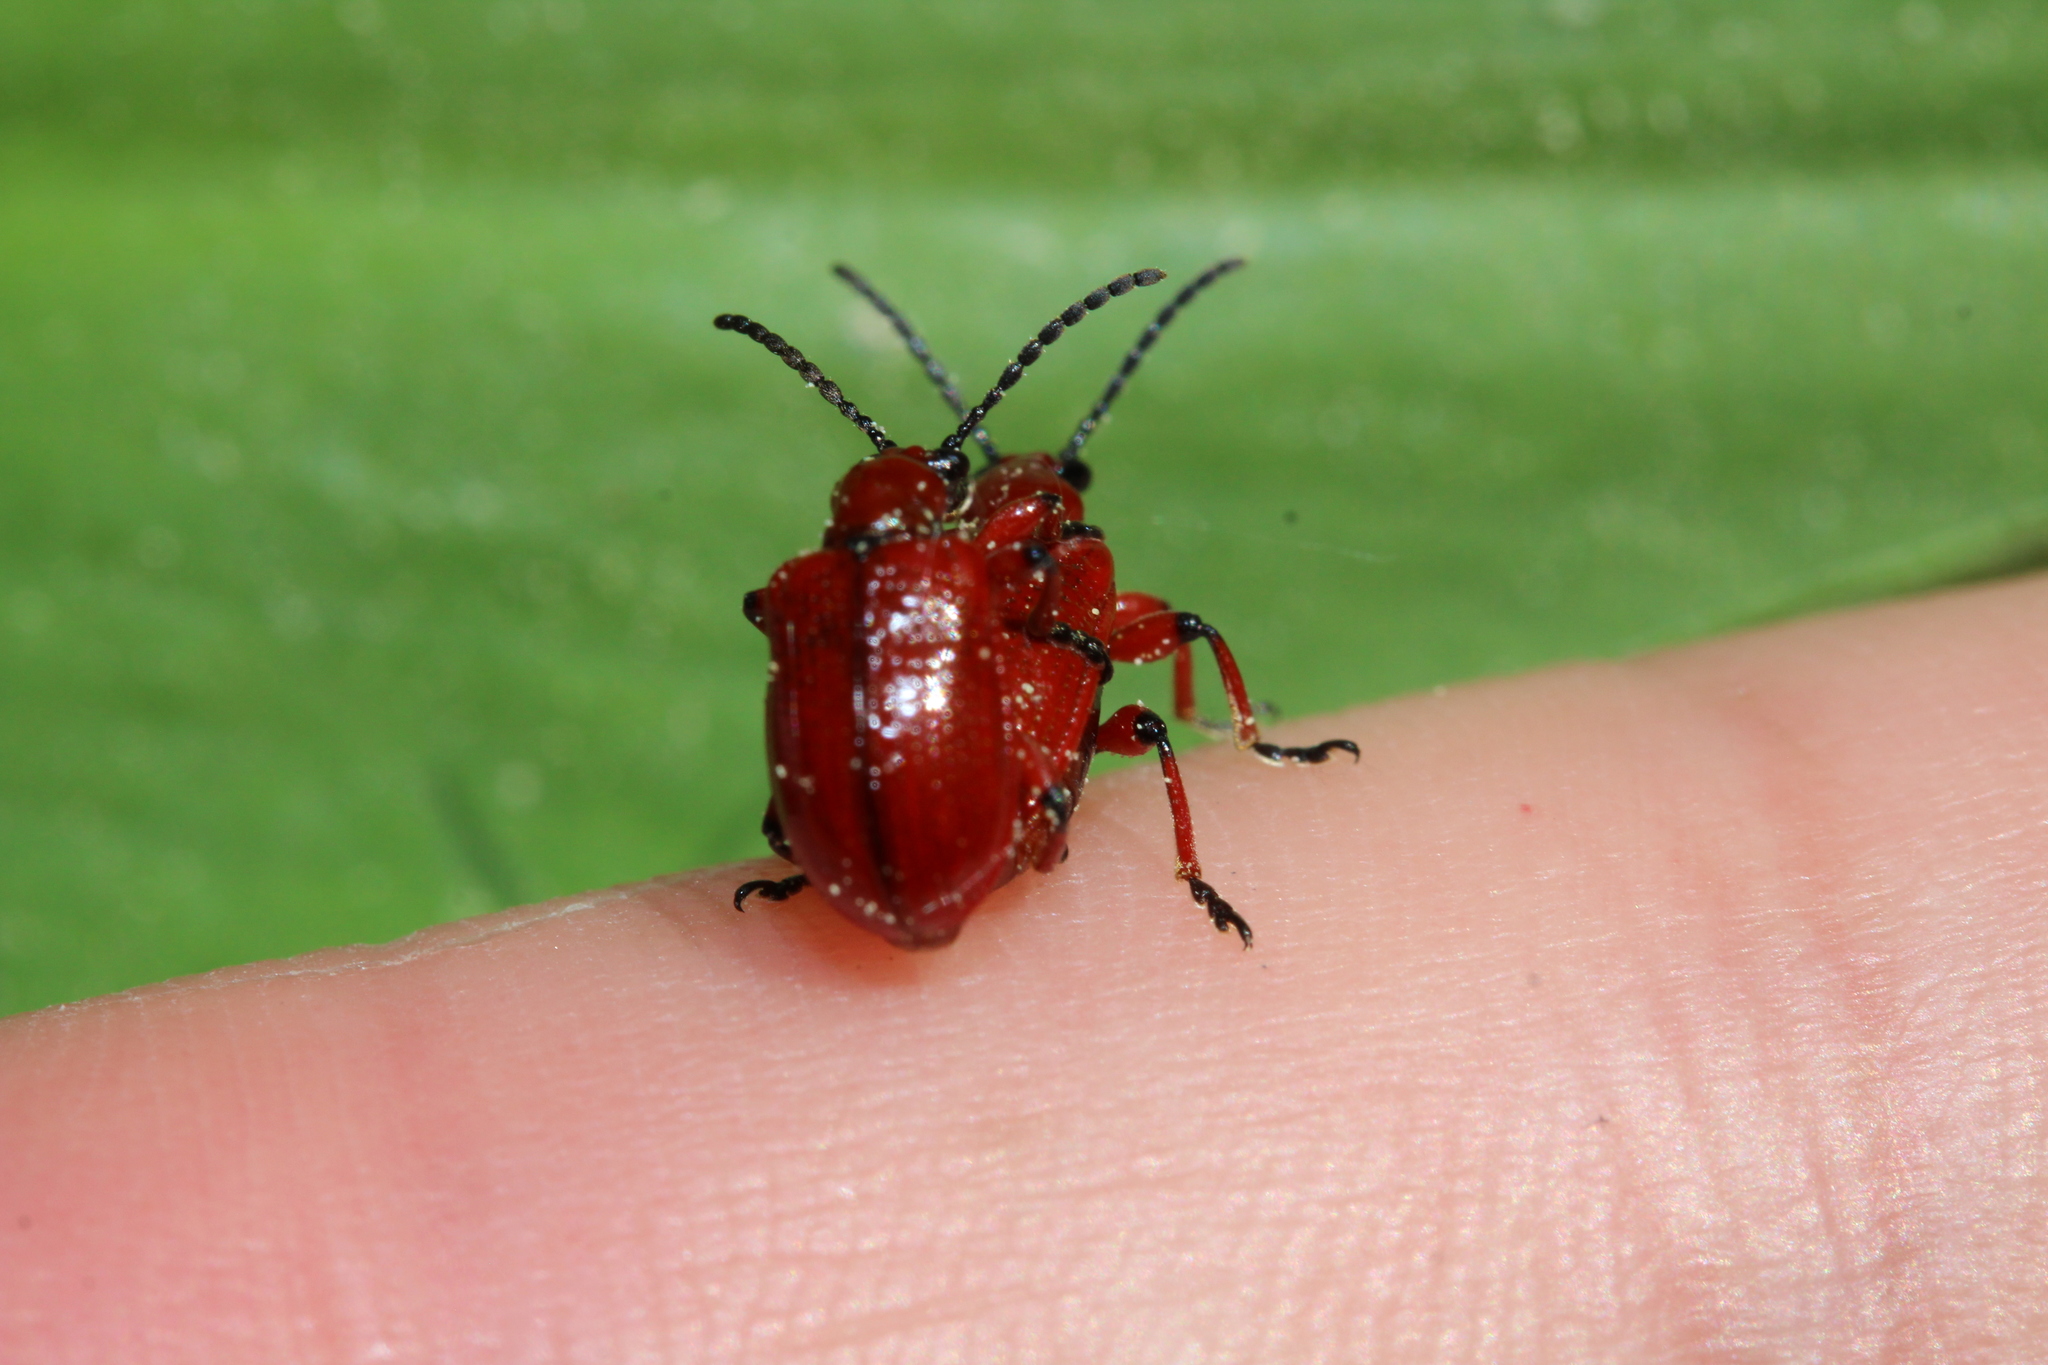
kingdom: Animalia
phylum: Arthropoda
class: Insecta
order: Coleoptera
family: Chrysomelidae
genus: Lilioceris
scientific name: Lilioceris merdigera
